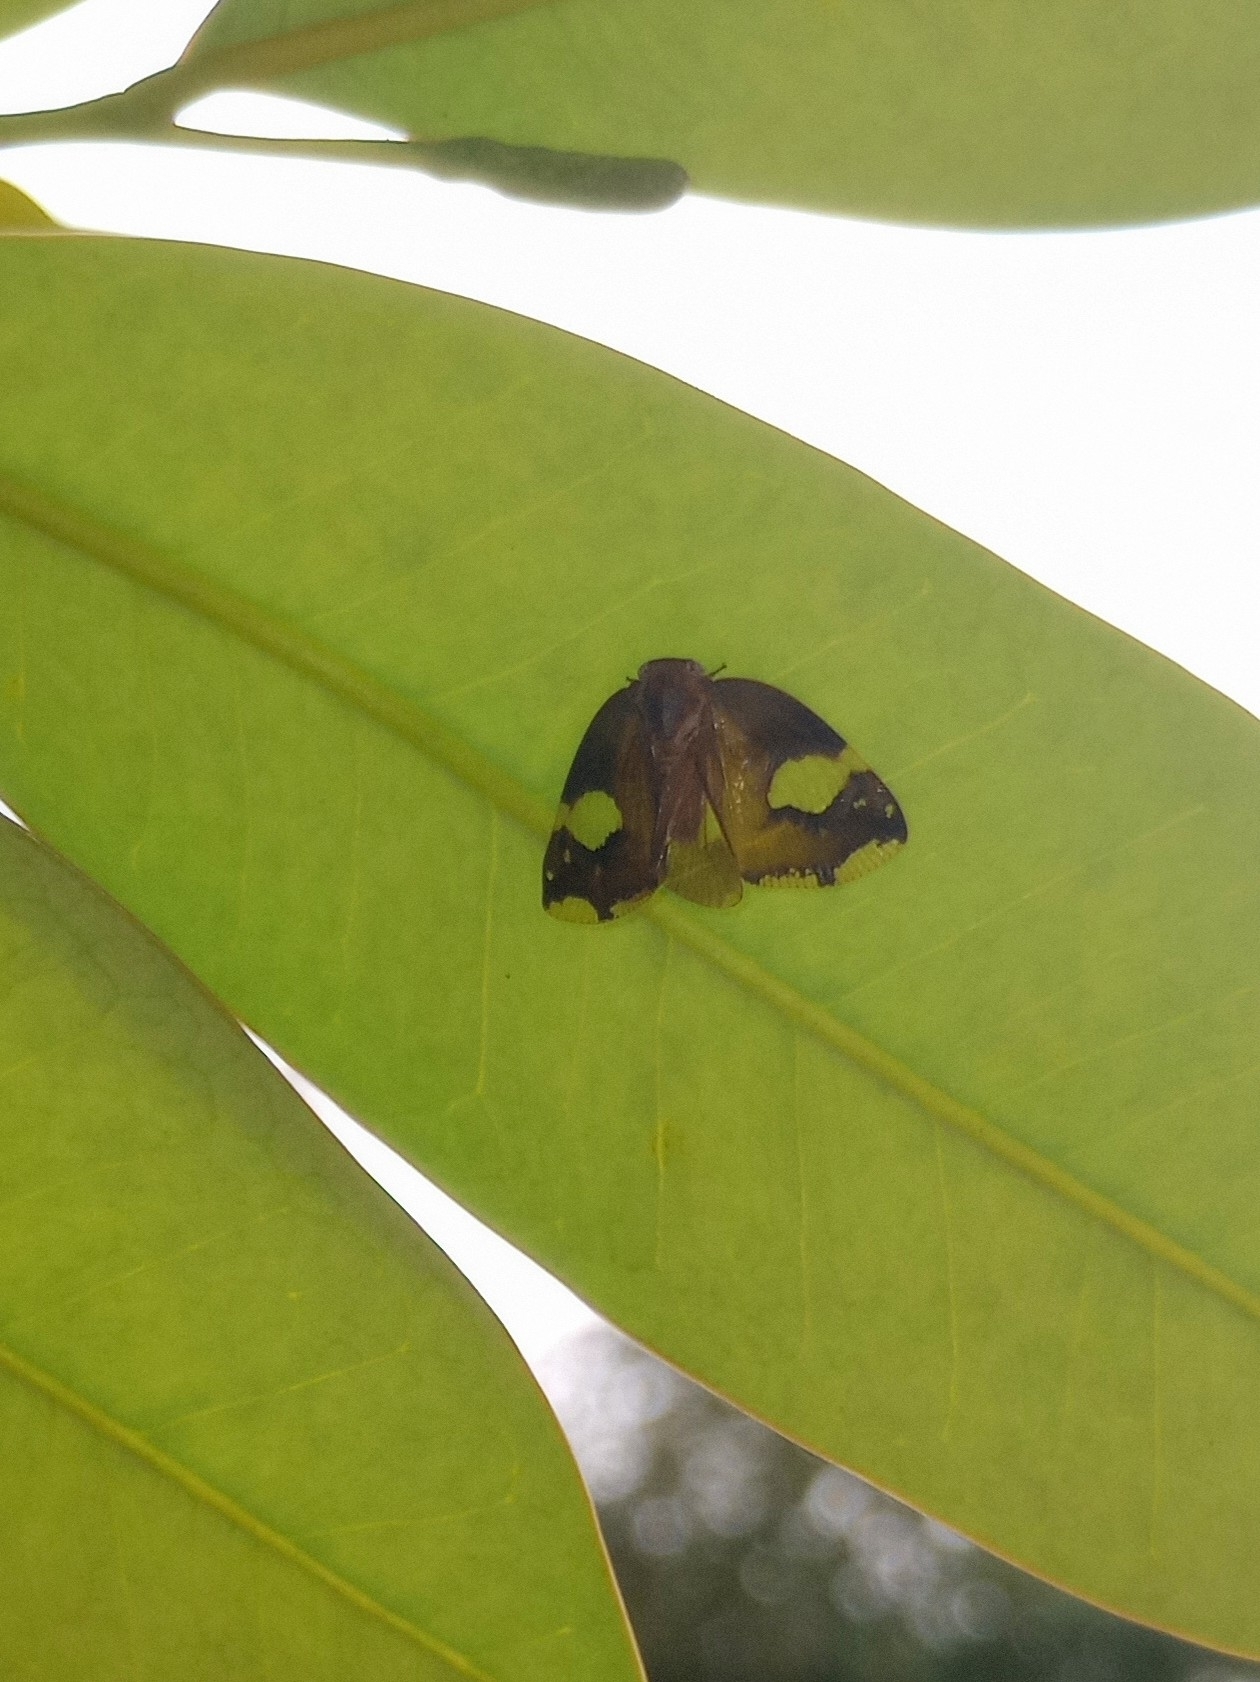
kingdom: Animalia
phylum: Arthropoda
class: Insecta
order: Hemiptera
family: Ricaniidae
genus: Ricania
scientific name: Ricania fenestrata
